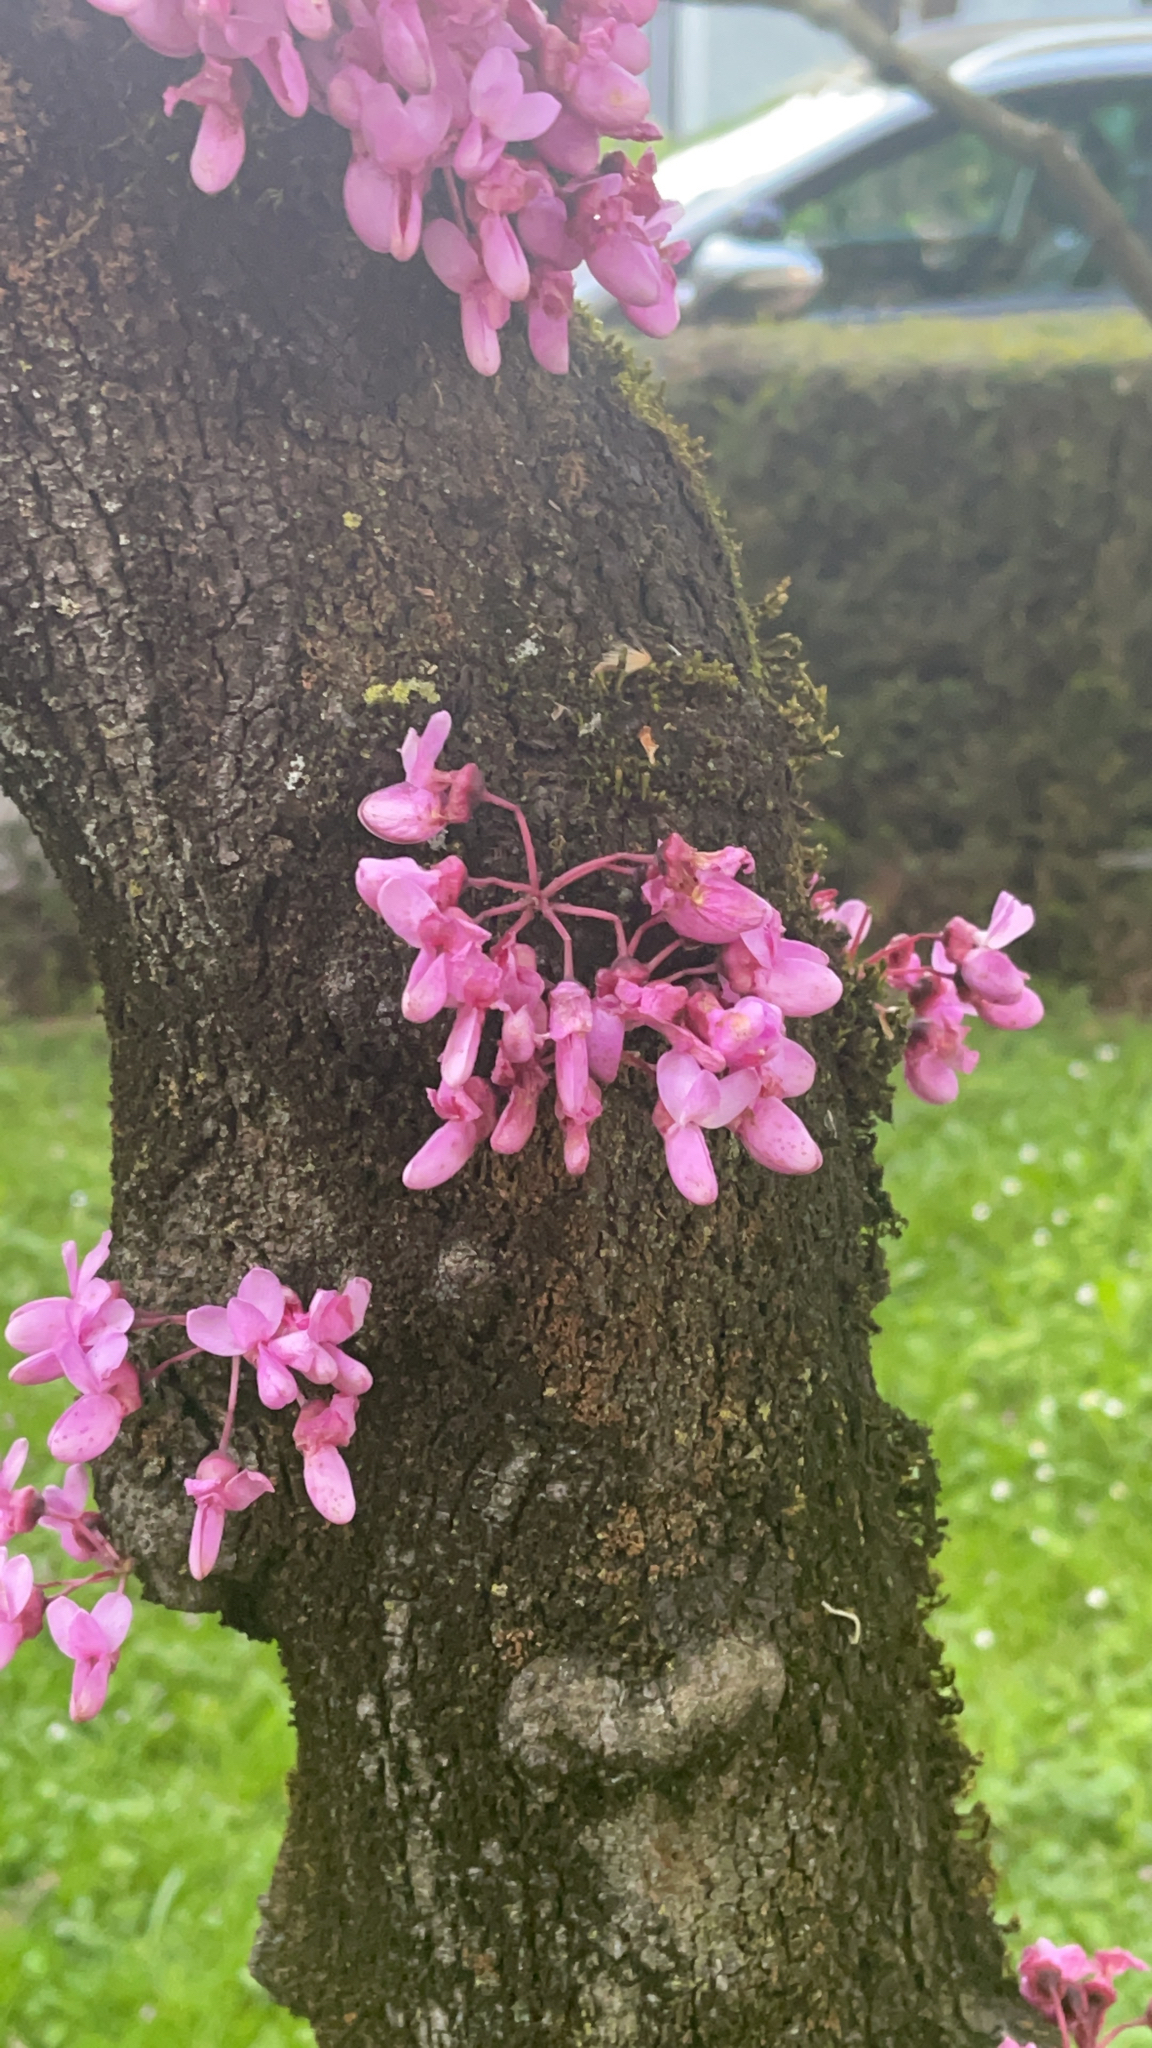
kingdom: Plantae
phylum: Tracheophyta
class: Magnoliopsida
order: Fabales
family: Fabaceae
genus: Cercis
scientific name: Cercis siliquastrum
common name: Judas tree
